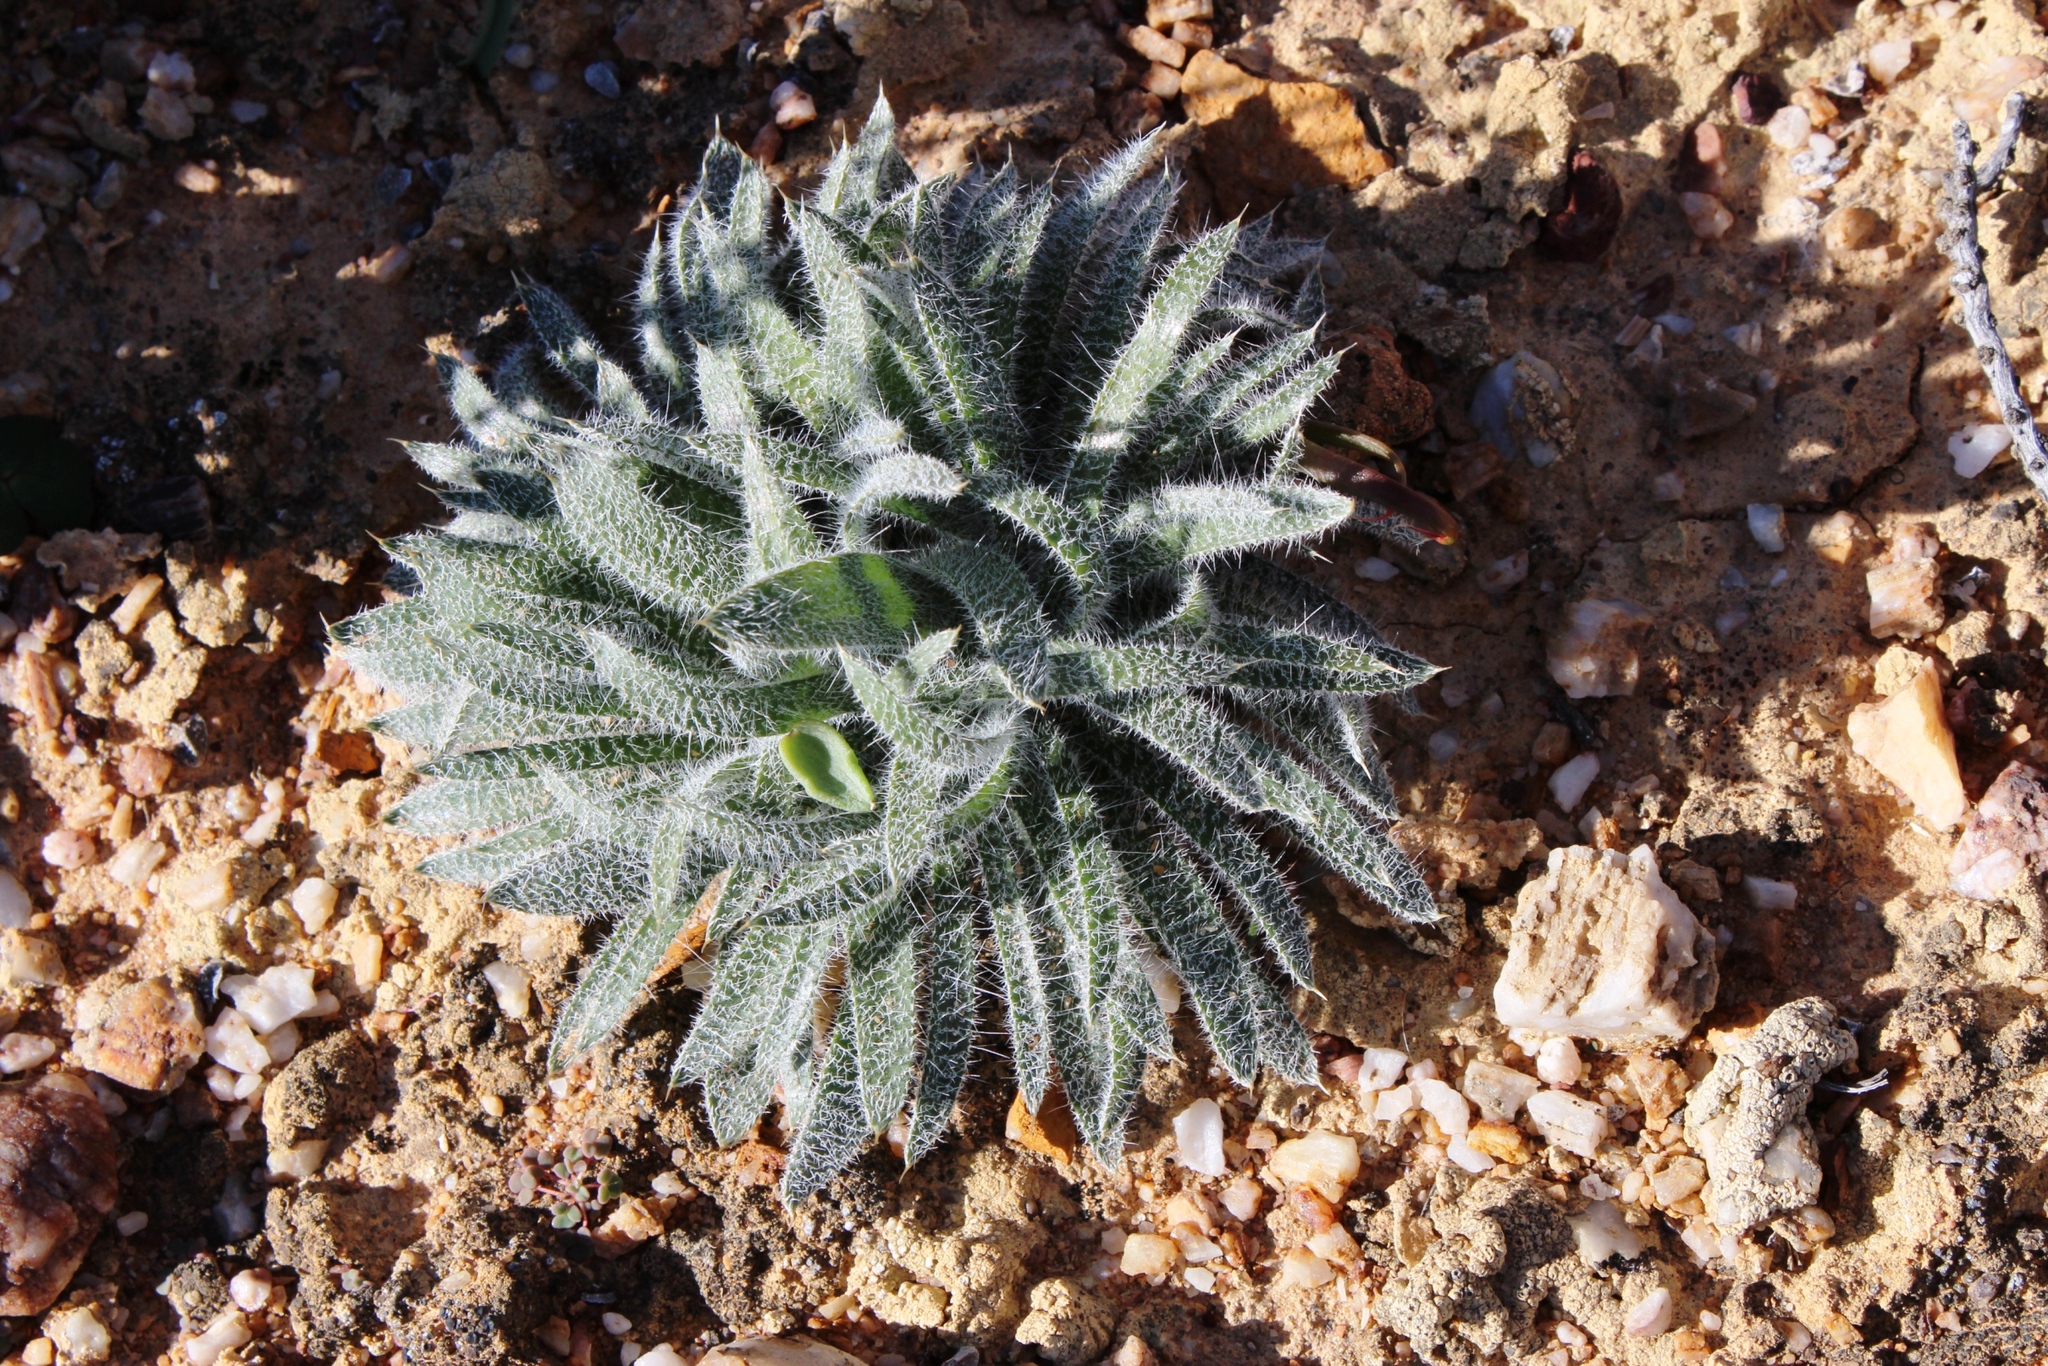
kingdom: Plantae
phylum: Tracheophyta
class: Liliopsida
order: Asparagales
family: Amaryllidaceae
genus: Gethyllis
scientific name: Gethyllis villosa
